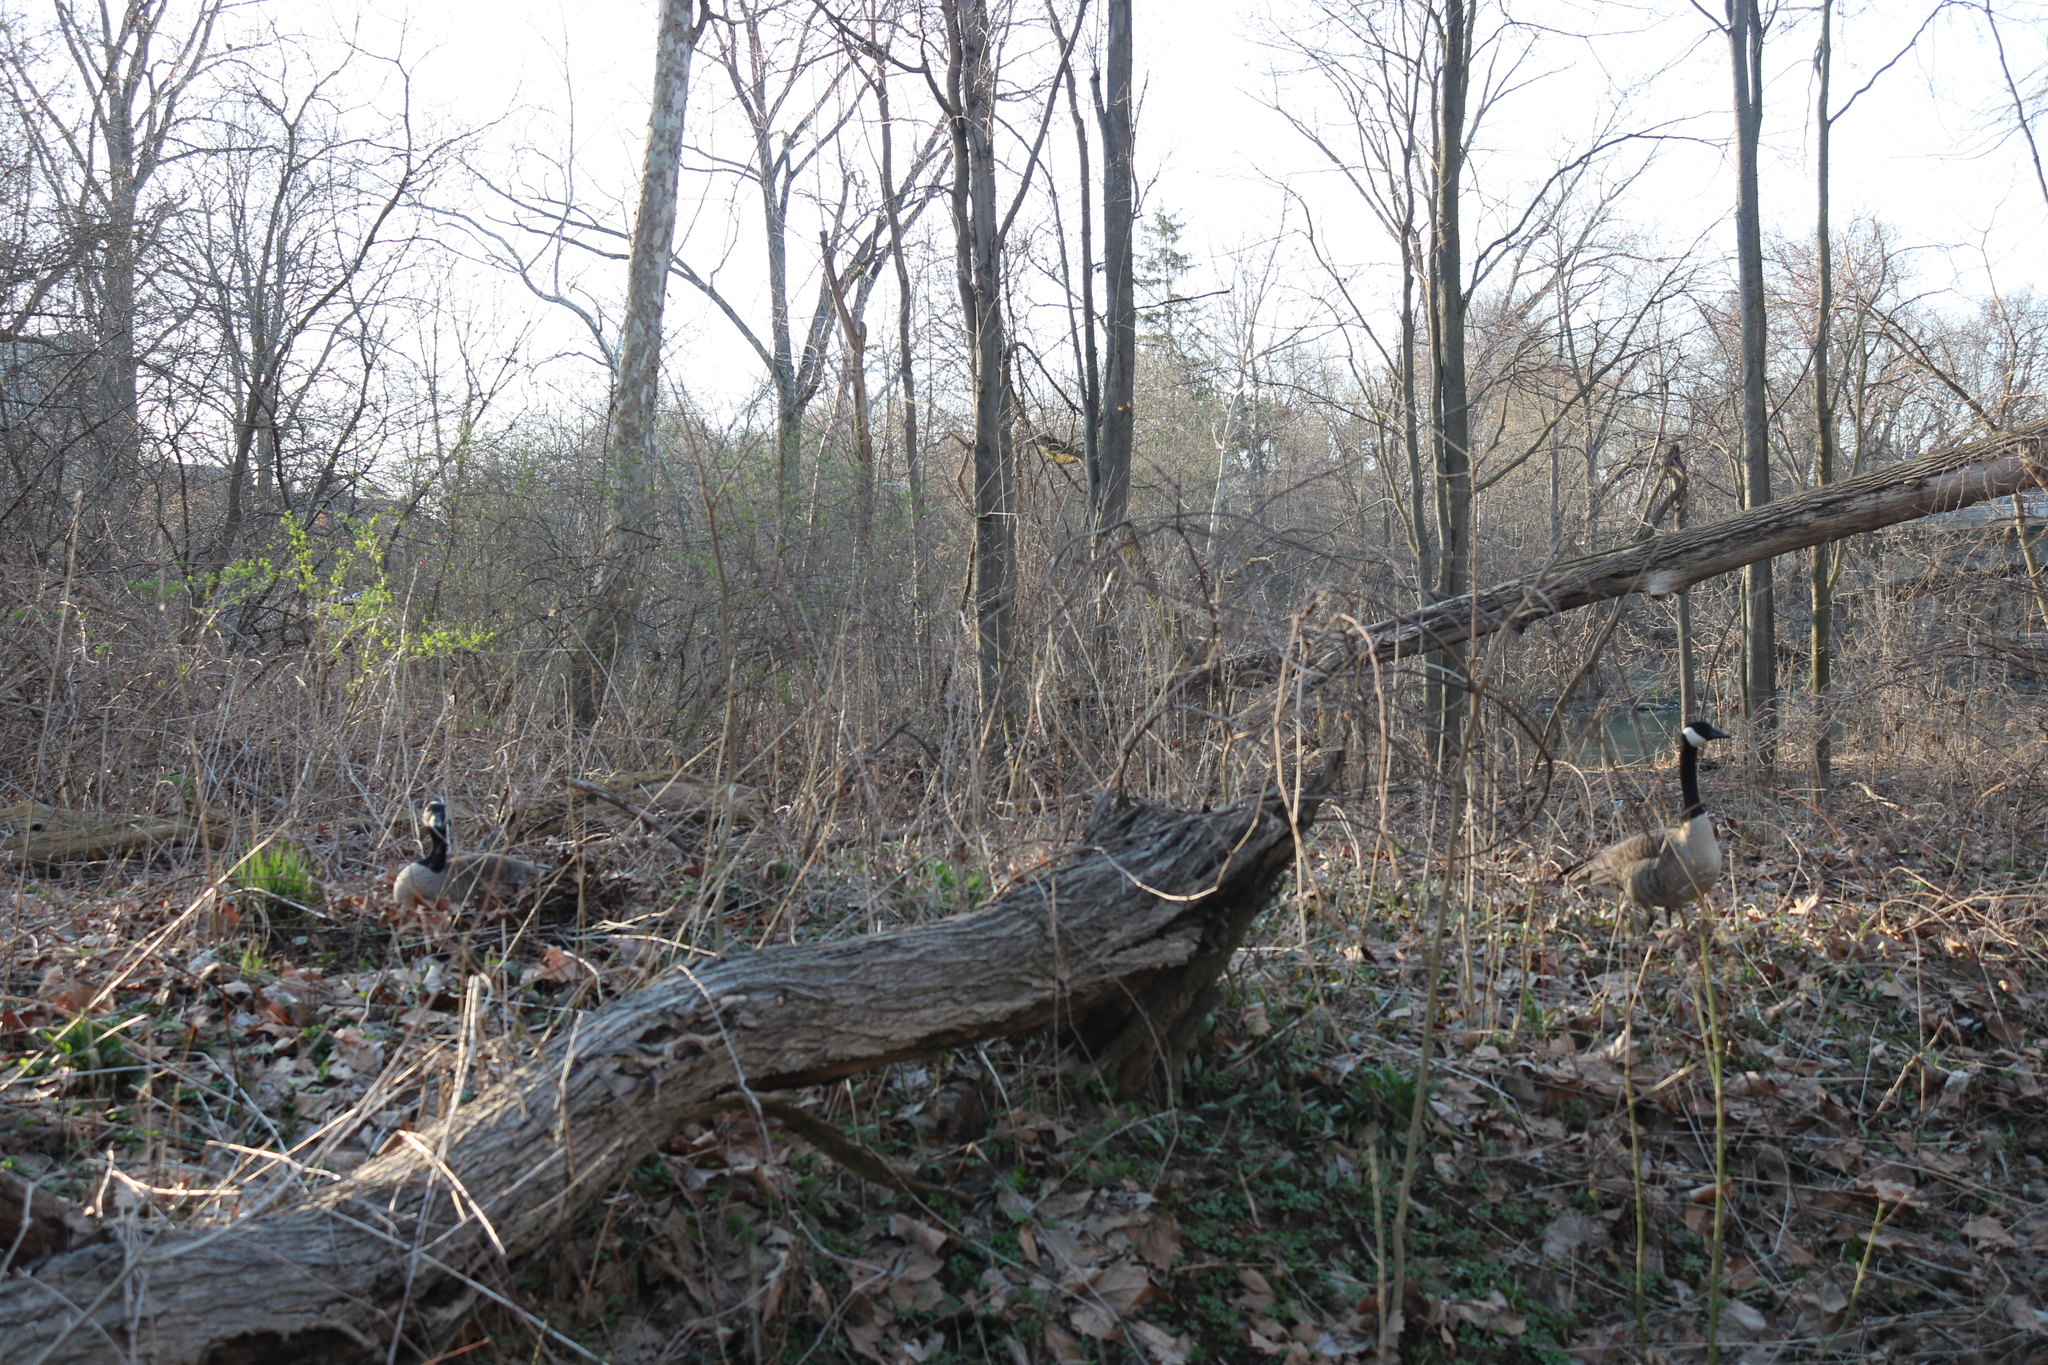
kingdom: Animalia
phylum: Chordata
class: Aves
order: Anseriformes
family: Anatidae
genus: Branta
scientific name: Branta canadensis
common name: Canada goose
